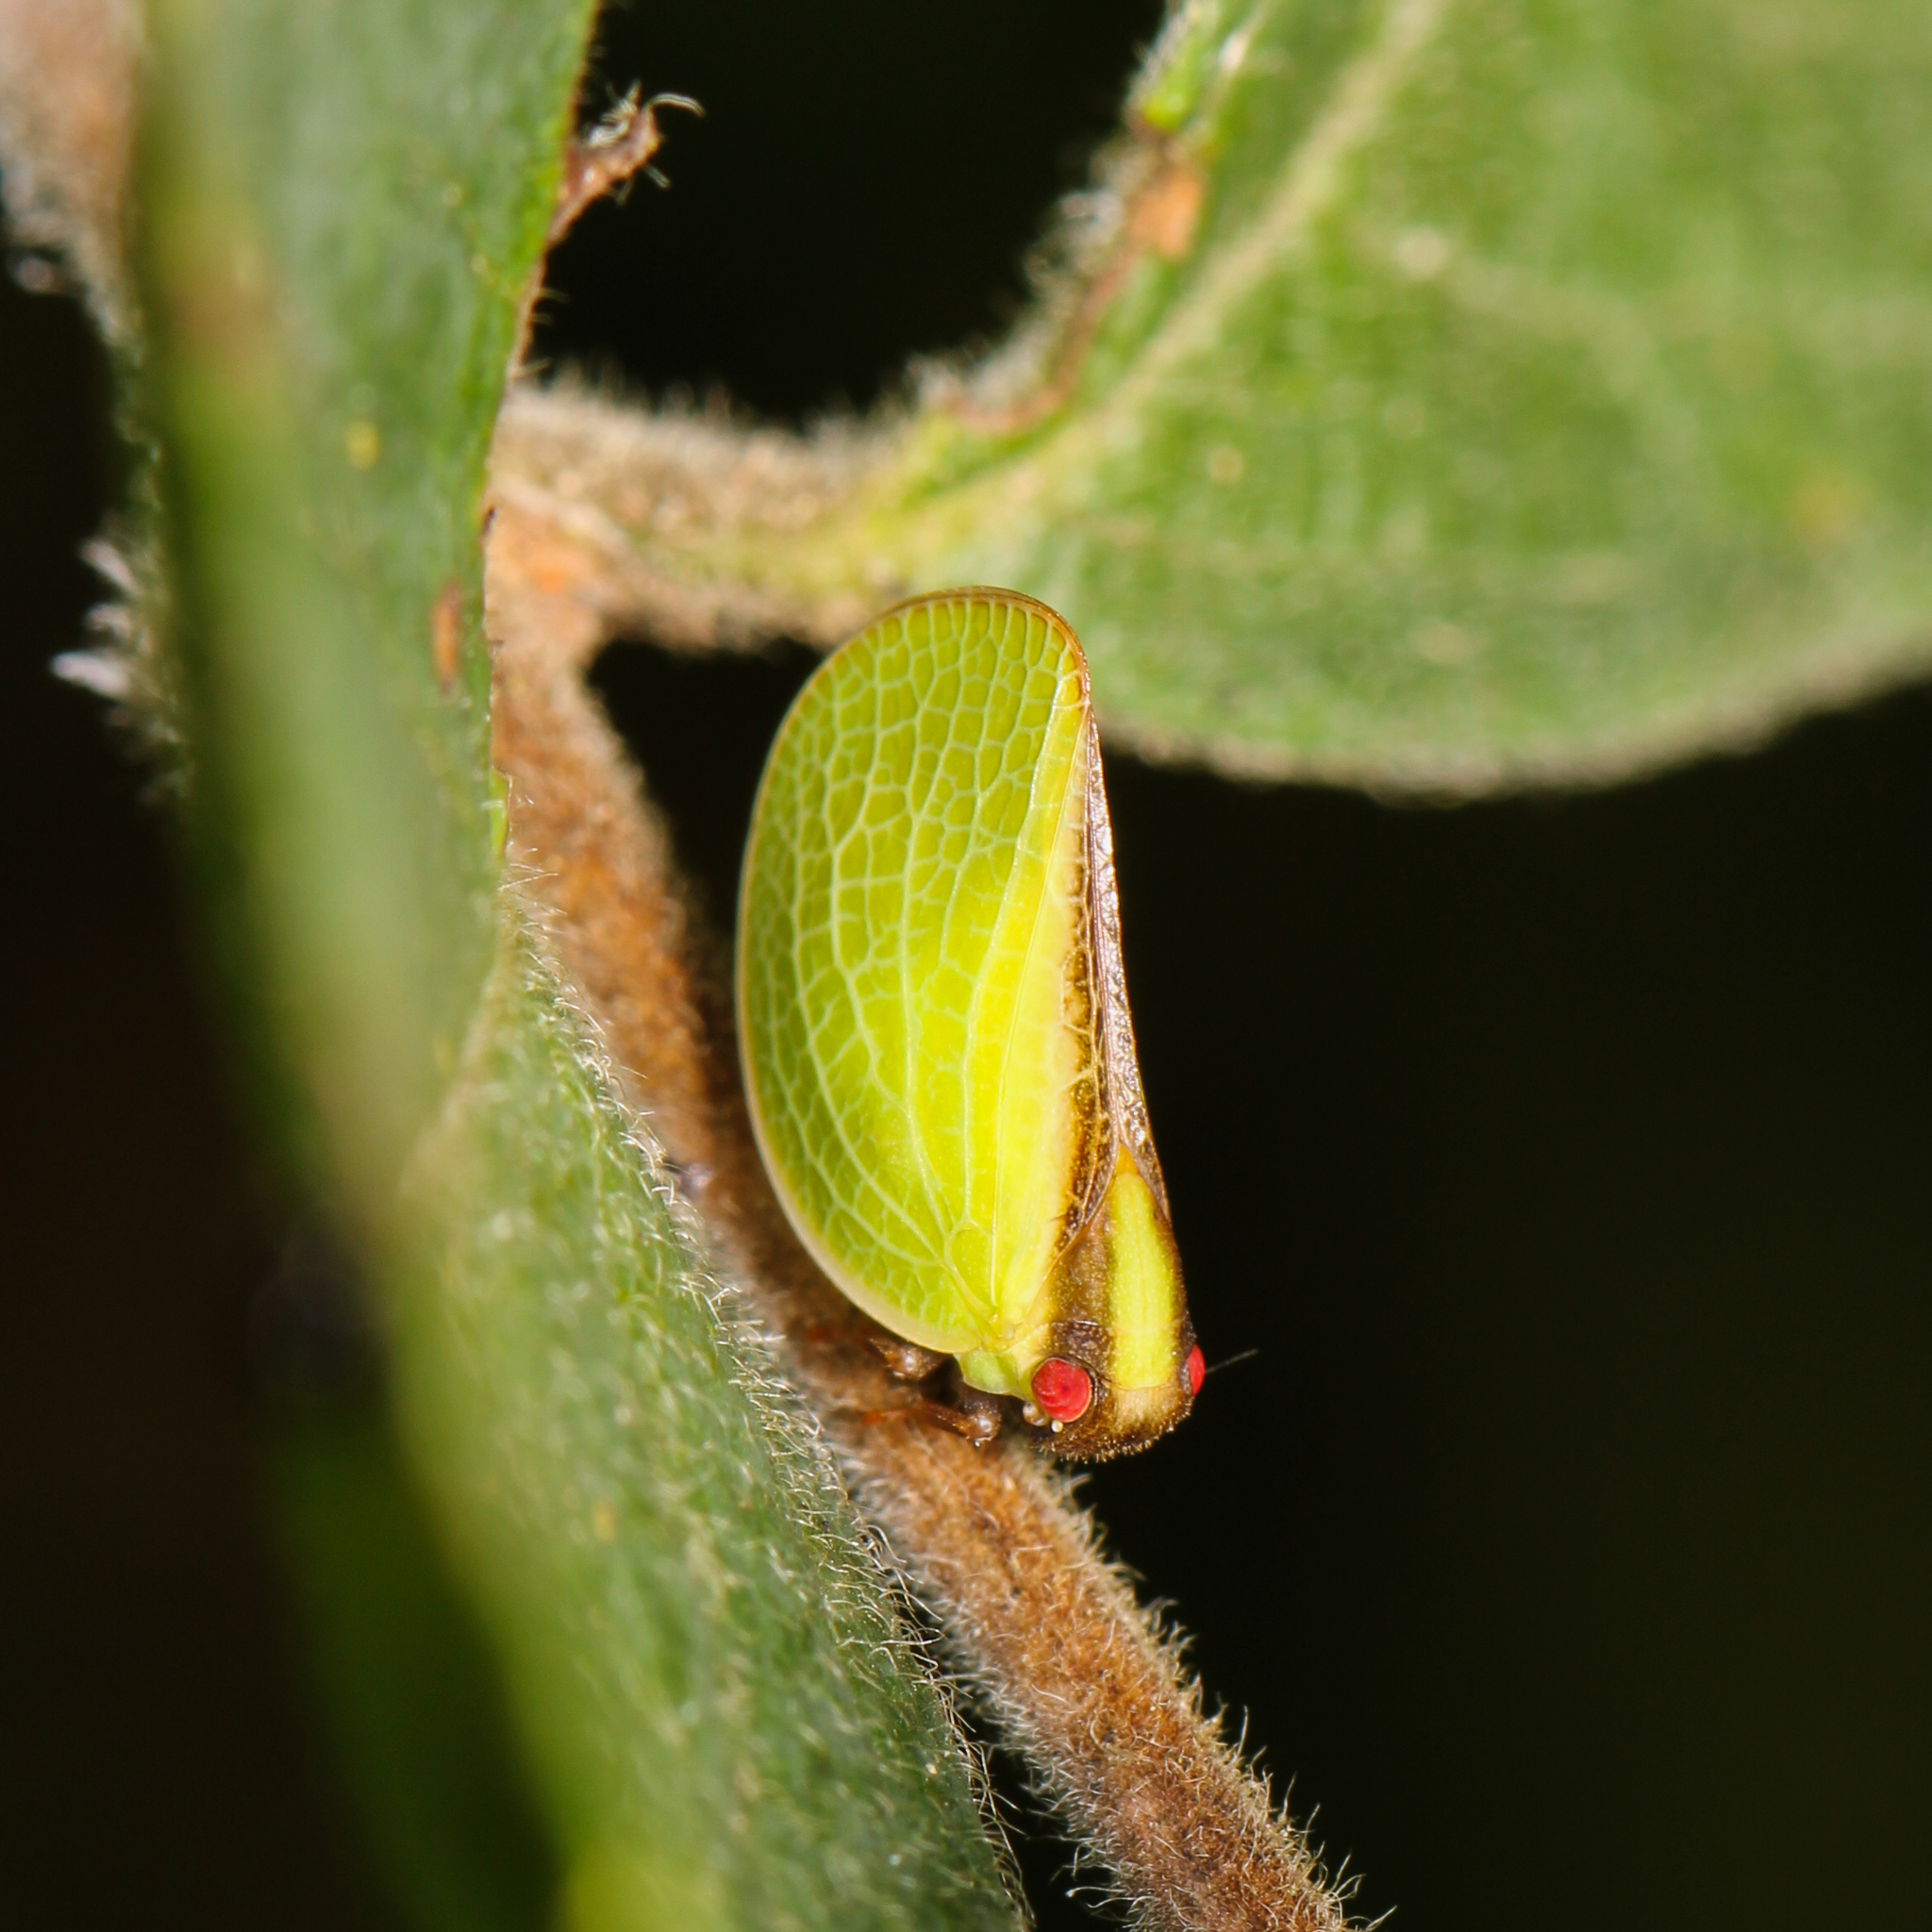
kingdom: Animalia
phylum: Arthropoda
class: Insecta
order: Hemiptera
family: Acanaloniidae
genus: Acanalonia
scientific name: Acanalonia bivittata
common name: Two-striped planthopper
